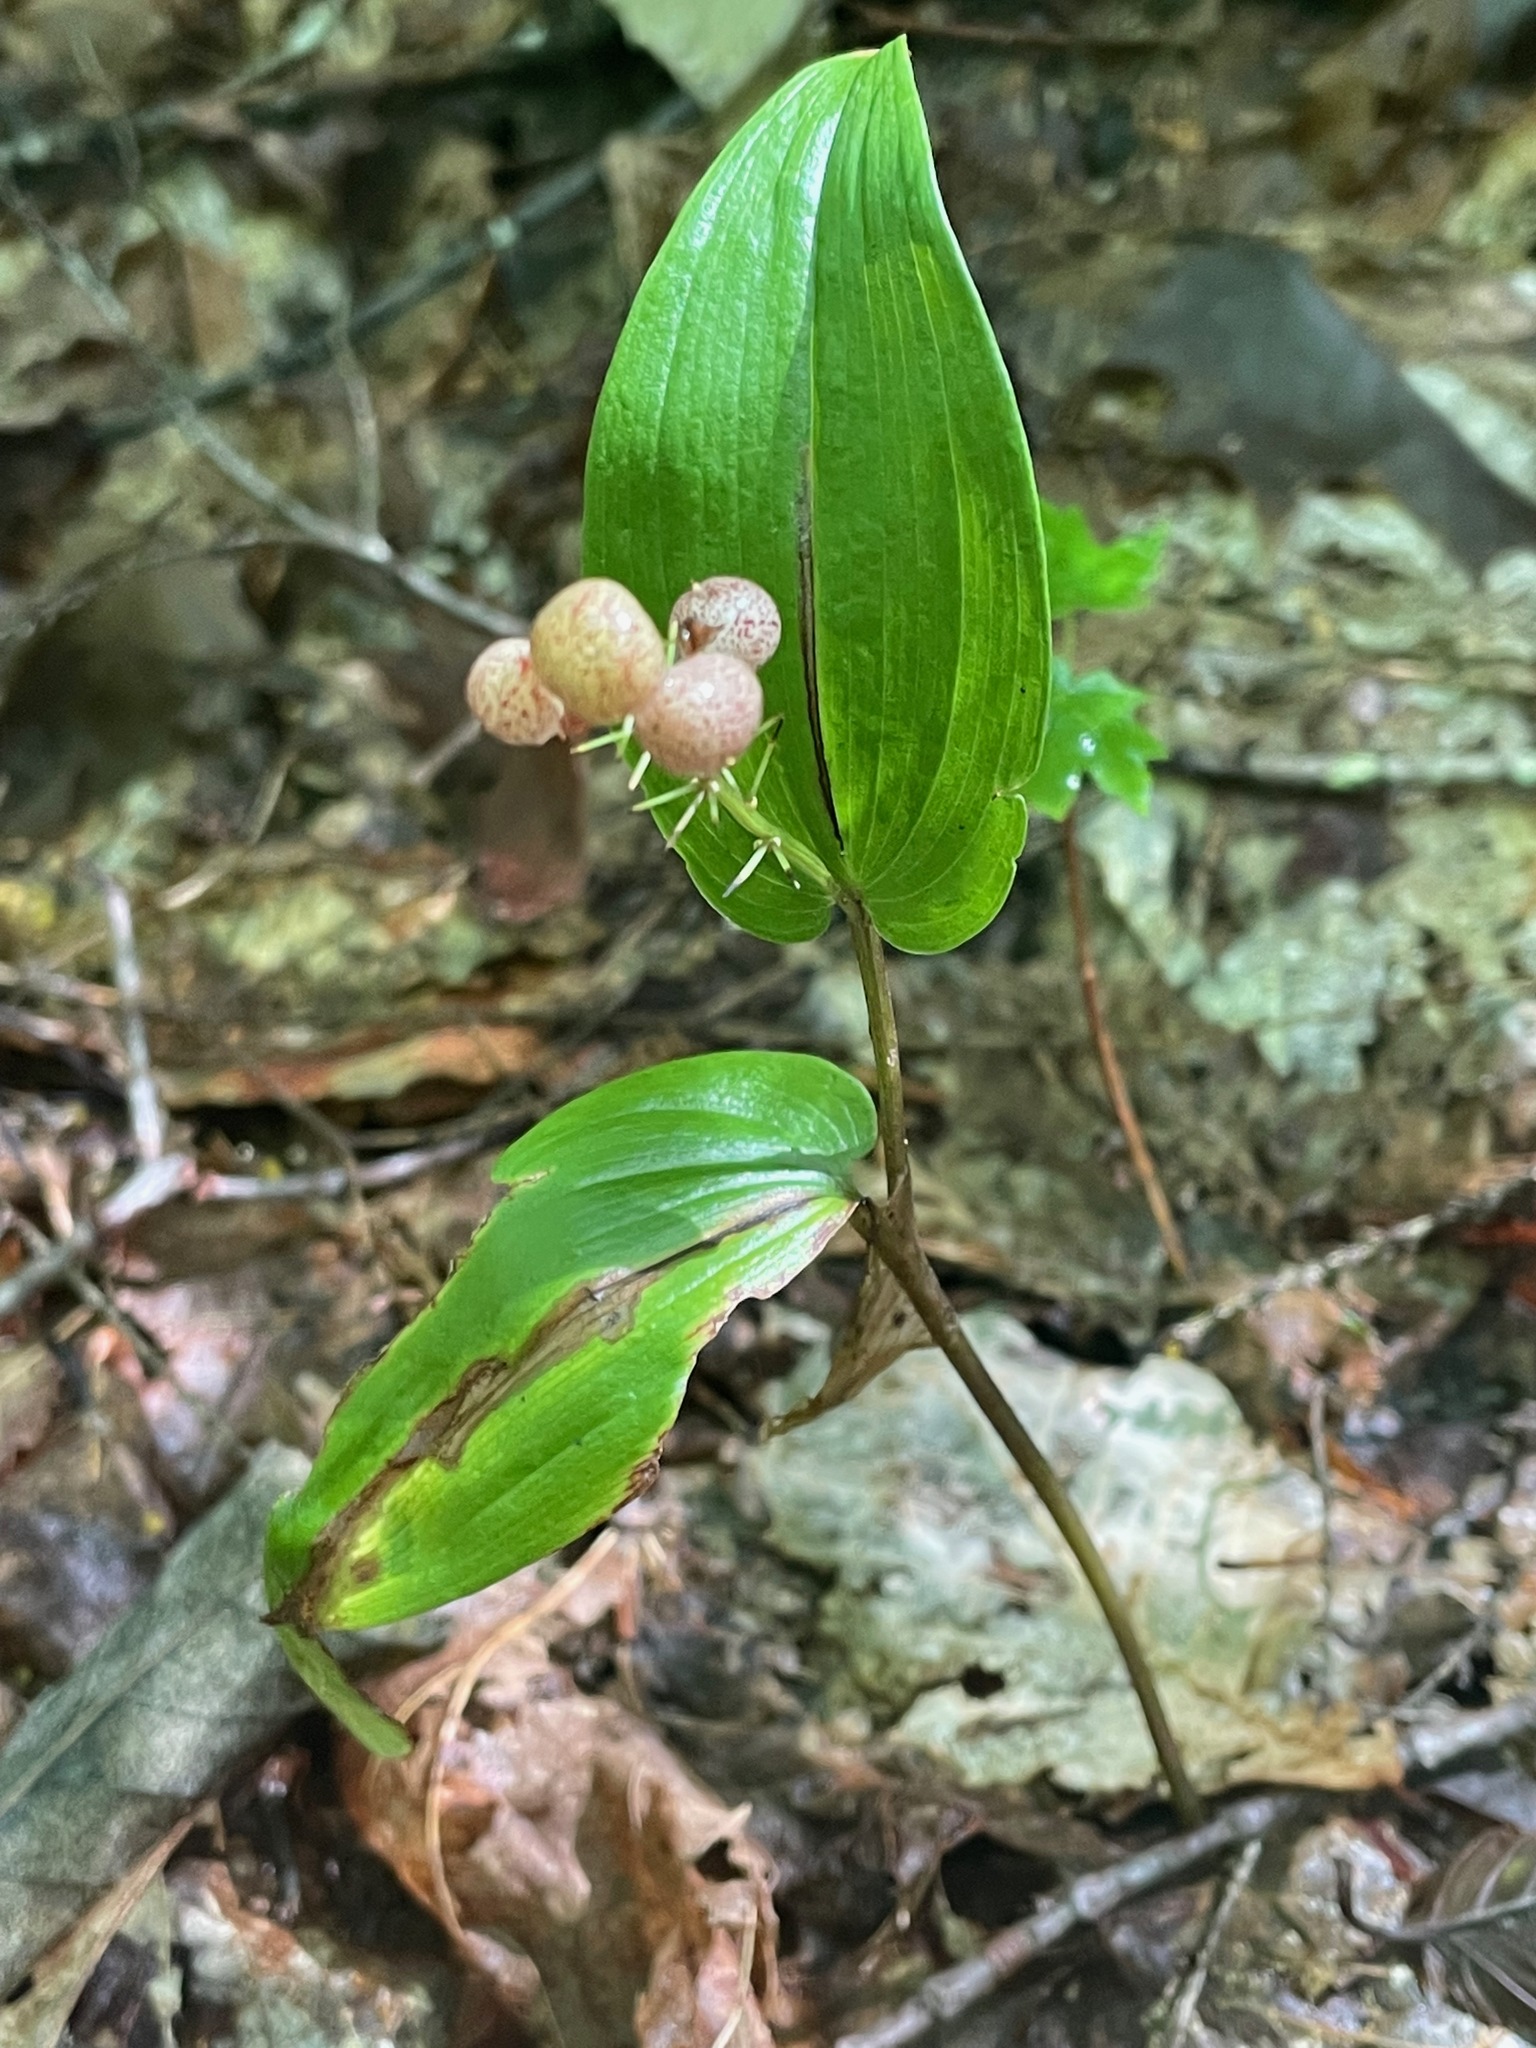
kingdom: Plantae
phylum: Tracheophyta
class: Liliopsida
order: Asparagales
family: Asparagaceae
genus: Maianthemum
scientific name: Maianthemum canadense
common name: False lily-of-the-valley
